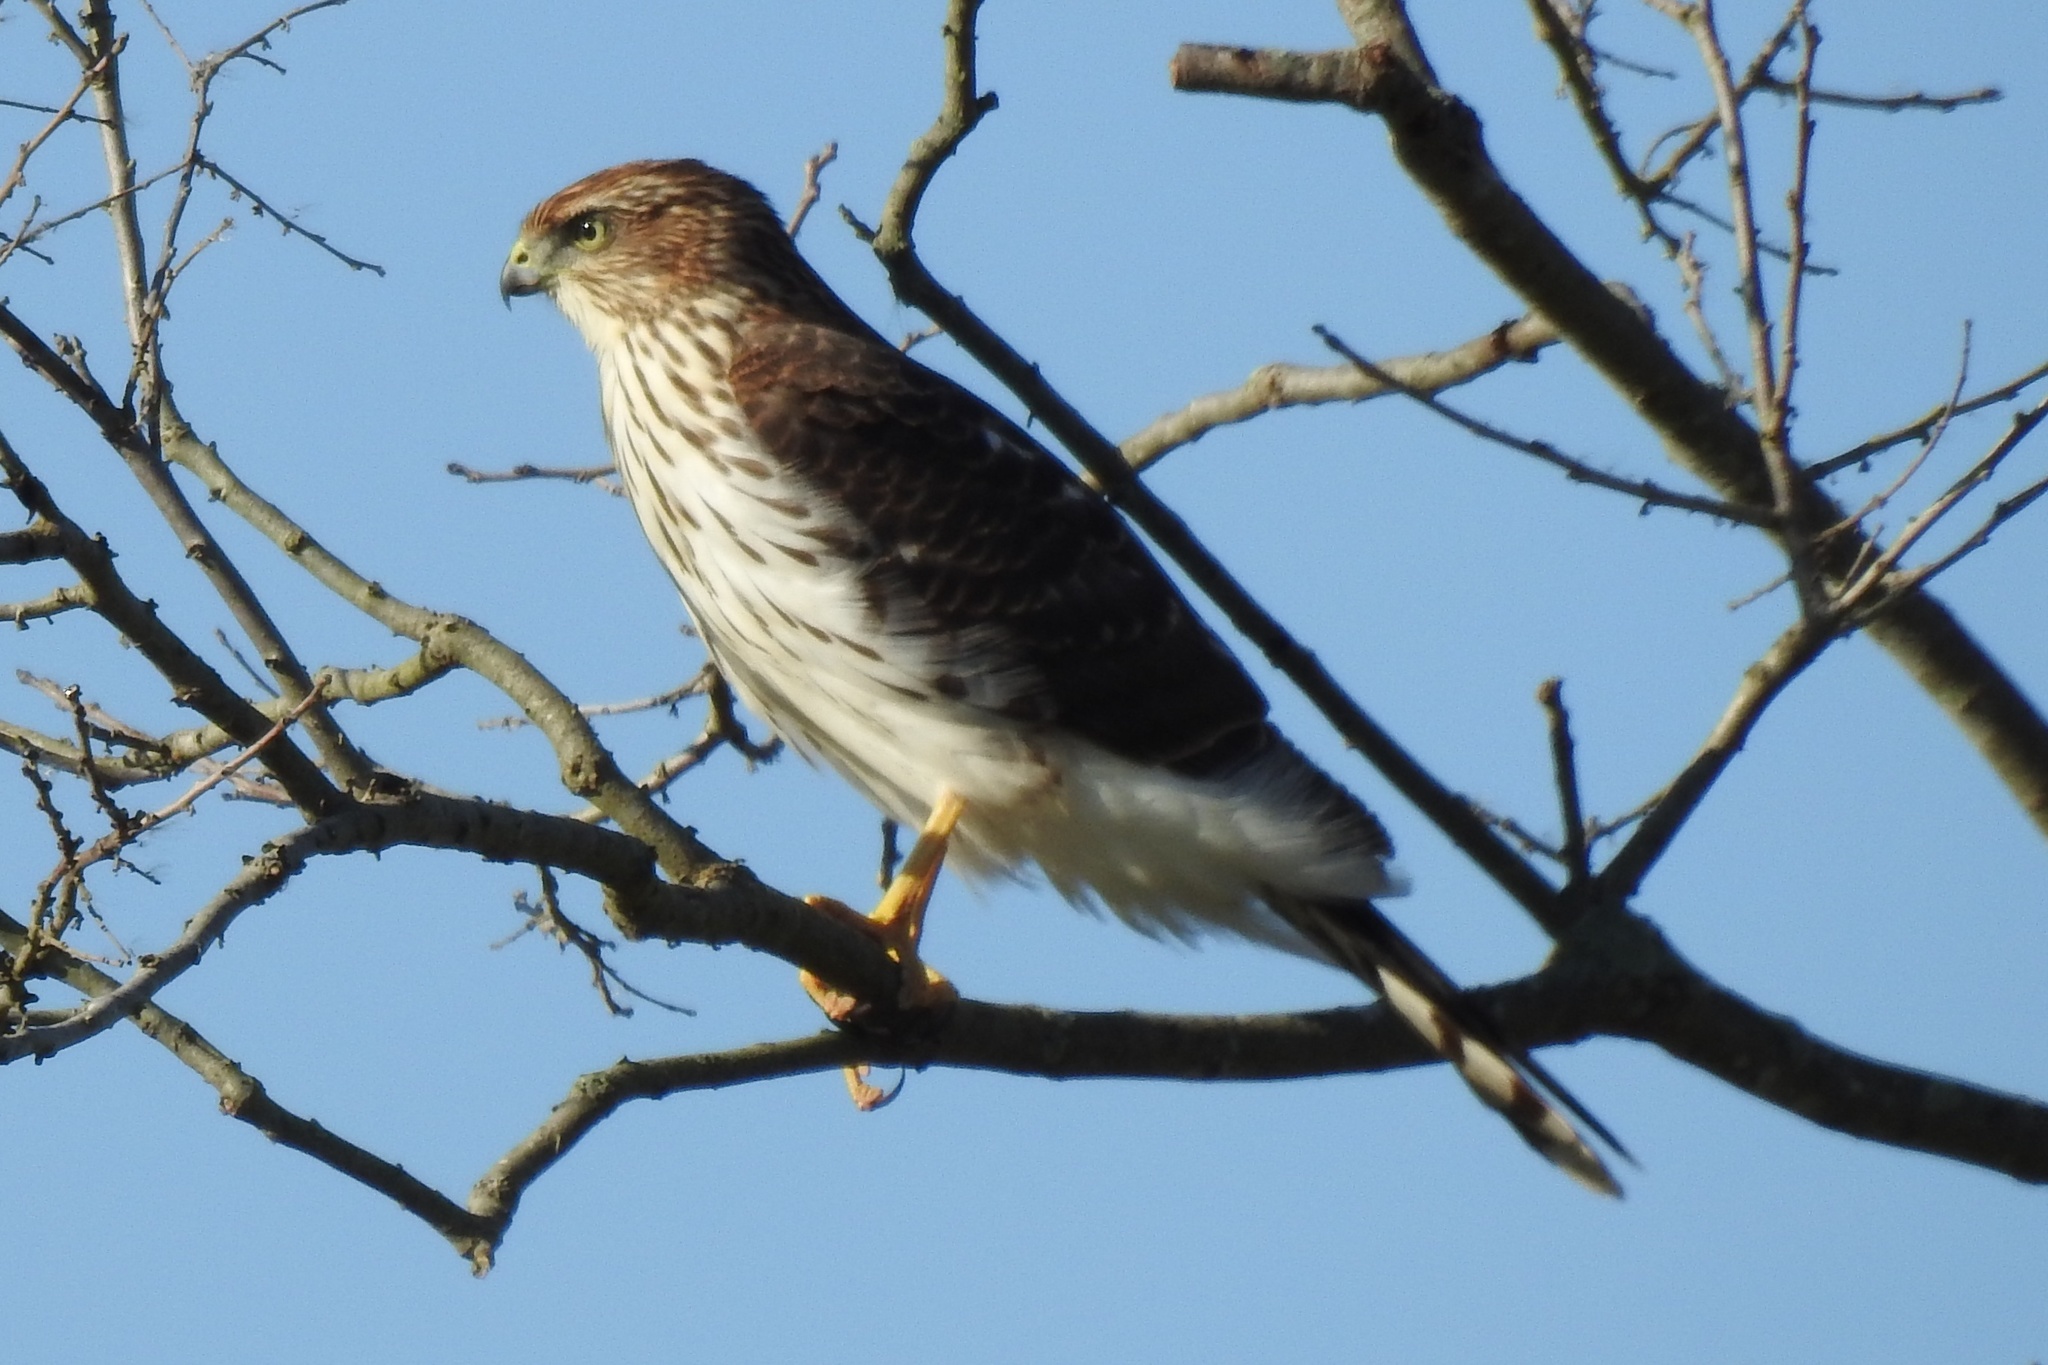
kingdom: Animalia
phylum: Chordata
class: Aves
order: Accipitriformes
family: Accipitridae
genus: Accipiter
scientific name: Accipiter cooperii
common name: Cooper's hawk
